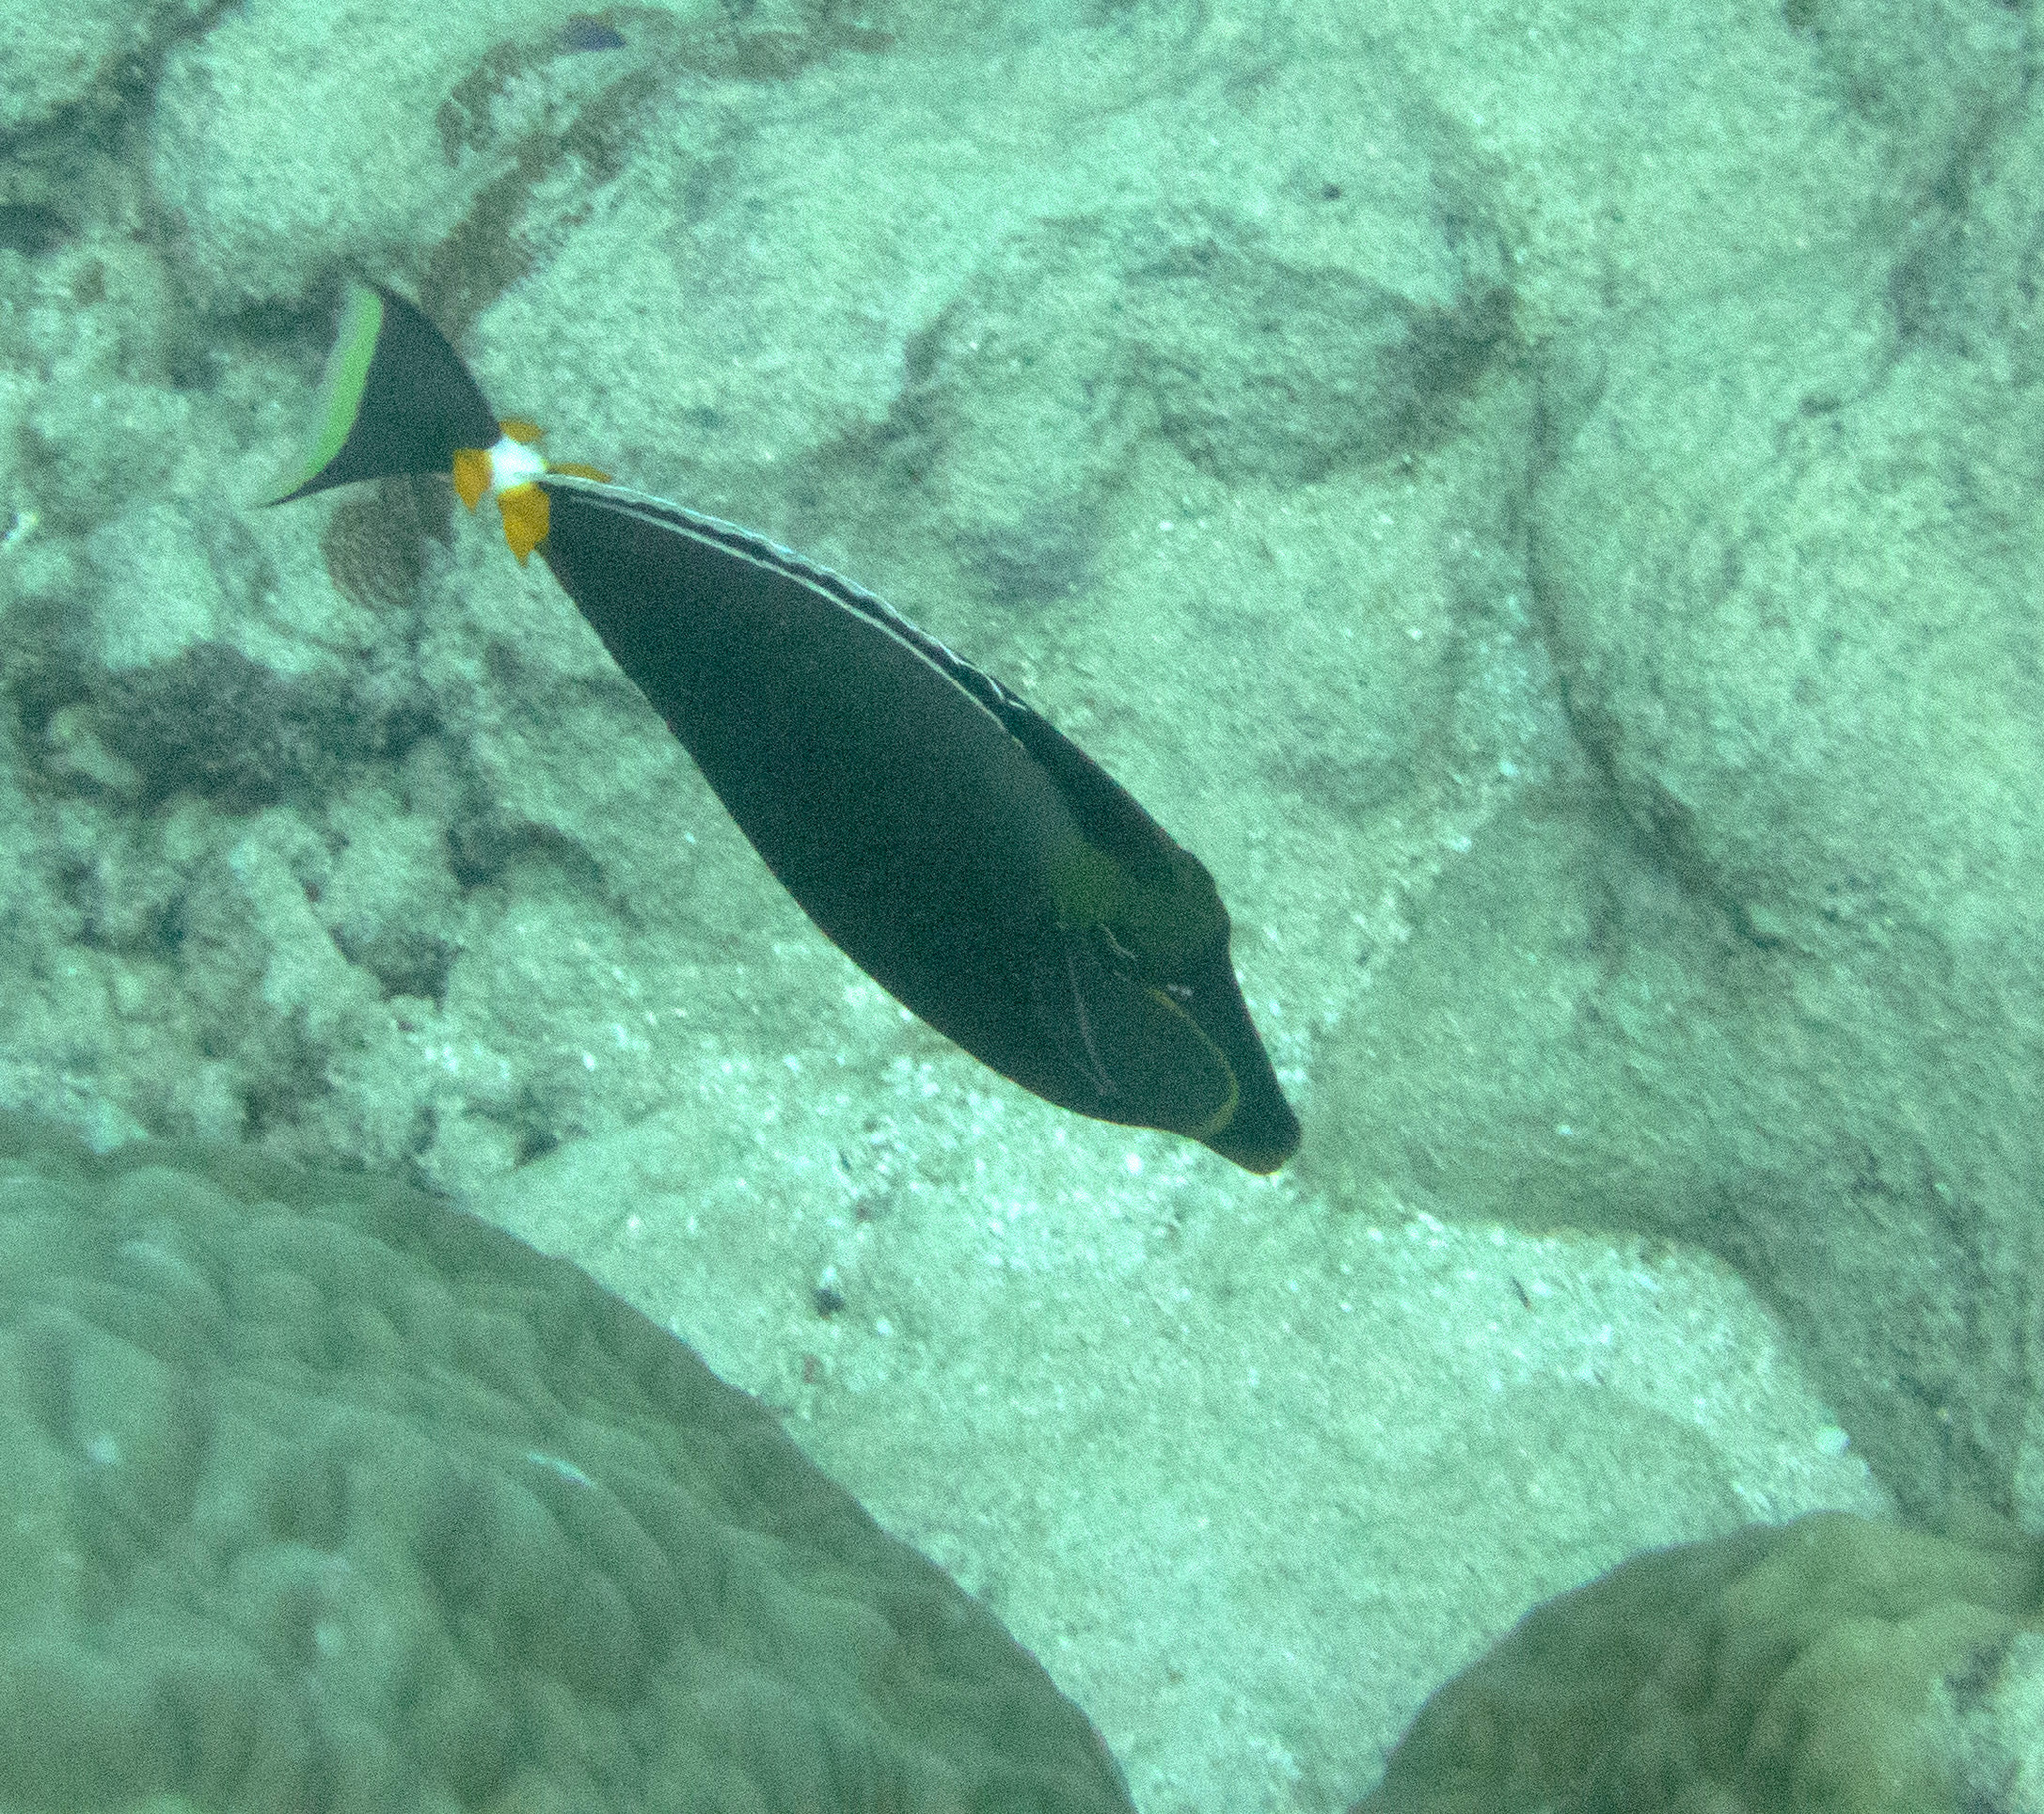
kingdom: Animalia
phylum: Chordata
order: Perciformes
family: Acanthuridae
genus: Naso
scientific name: Naso lituratus
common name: Orangespine unicornfish
